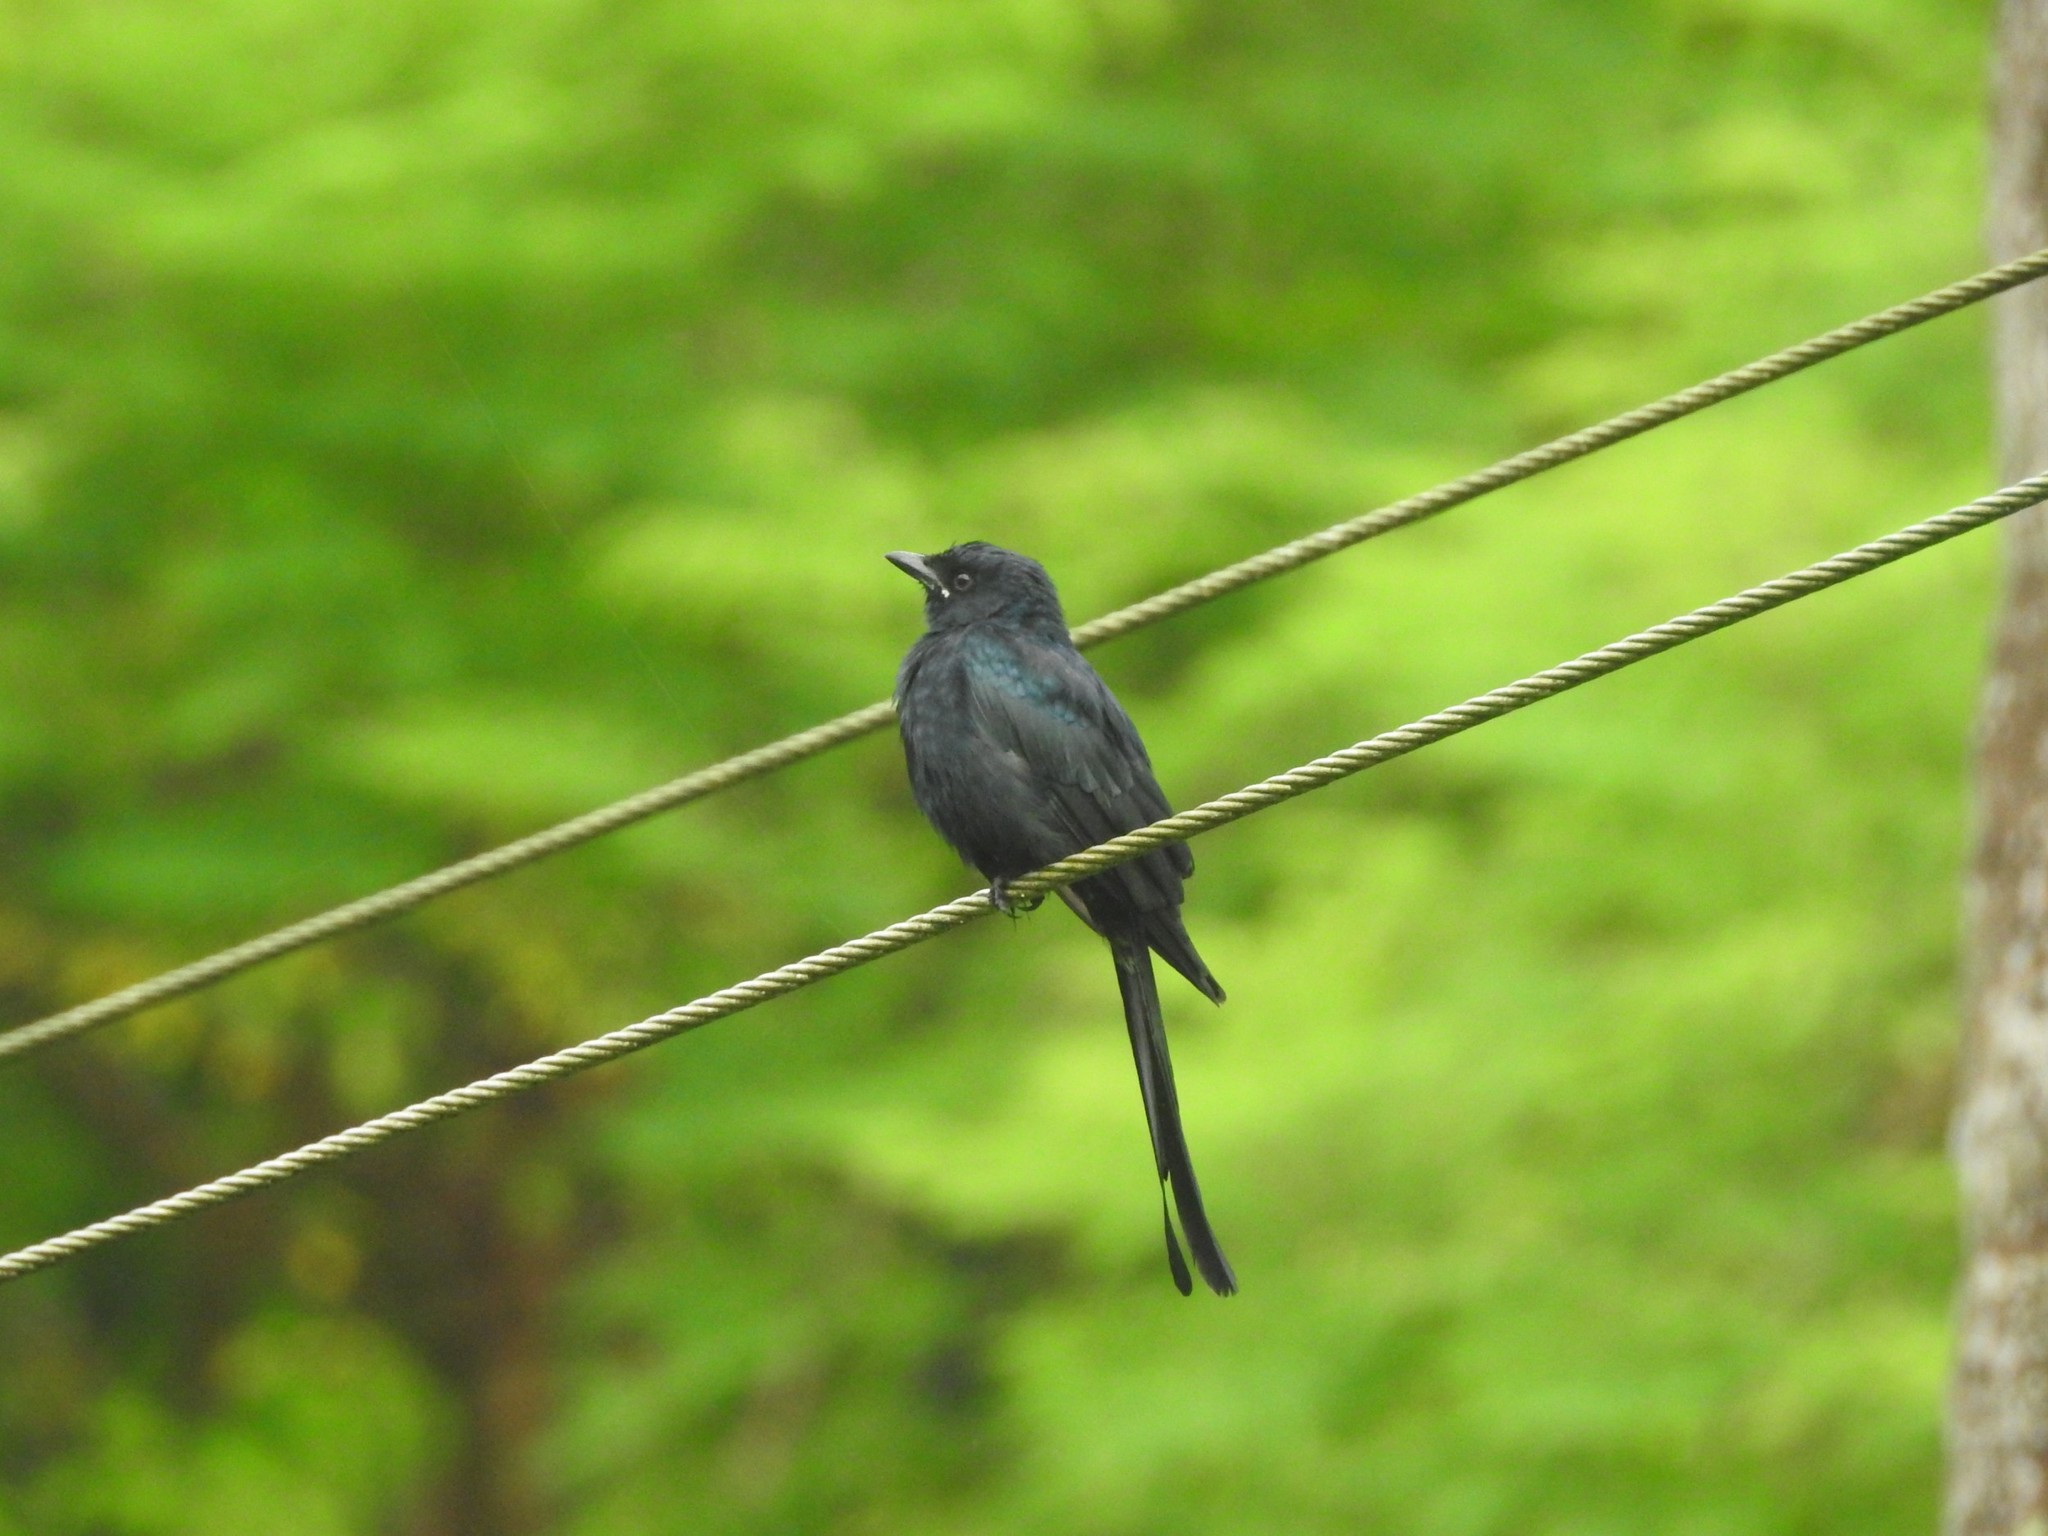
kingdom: Animalia
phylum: Chordata
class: Aves
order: Passeriformes
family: Dicruridae
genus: Dicrurus
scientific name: Dicrurus macrocercus
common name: Black drongo
